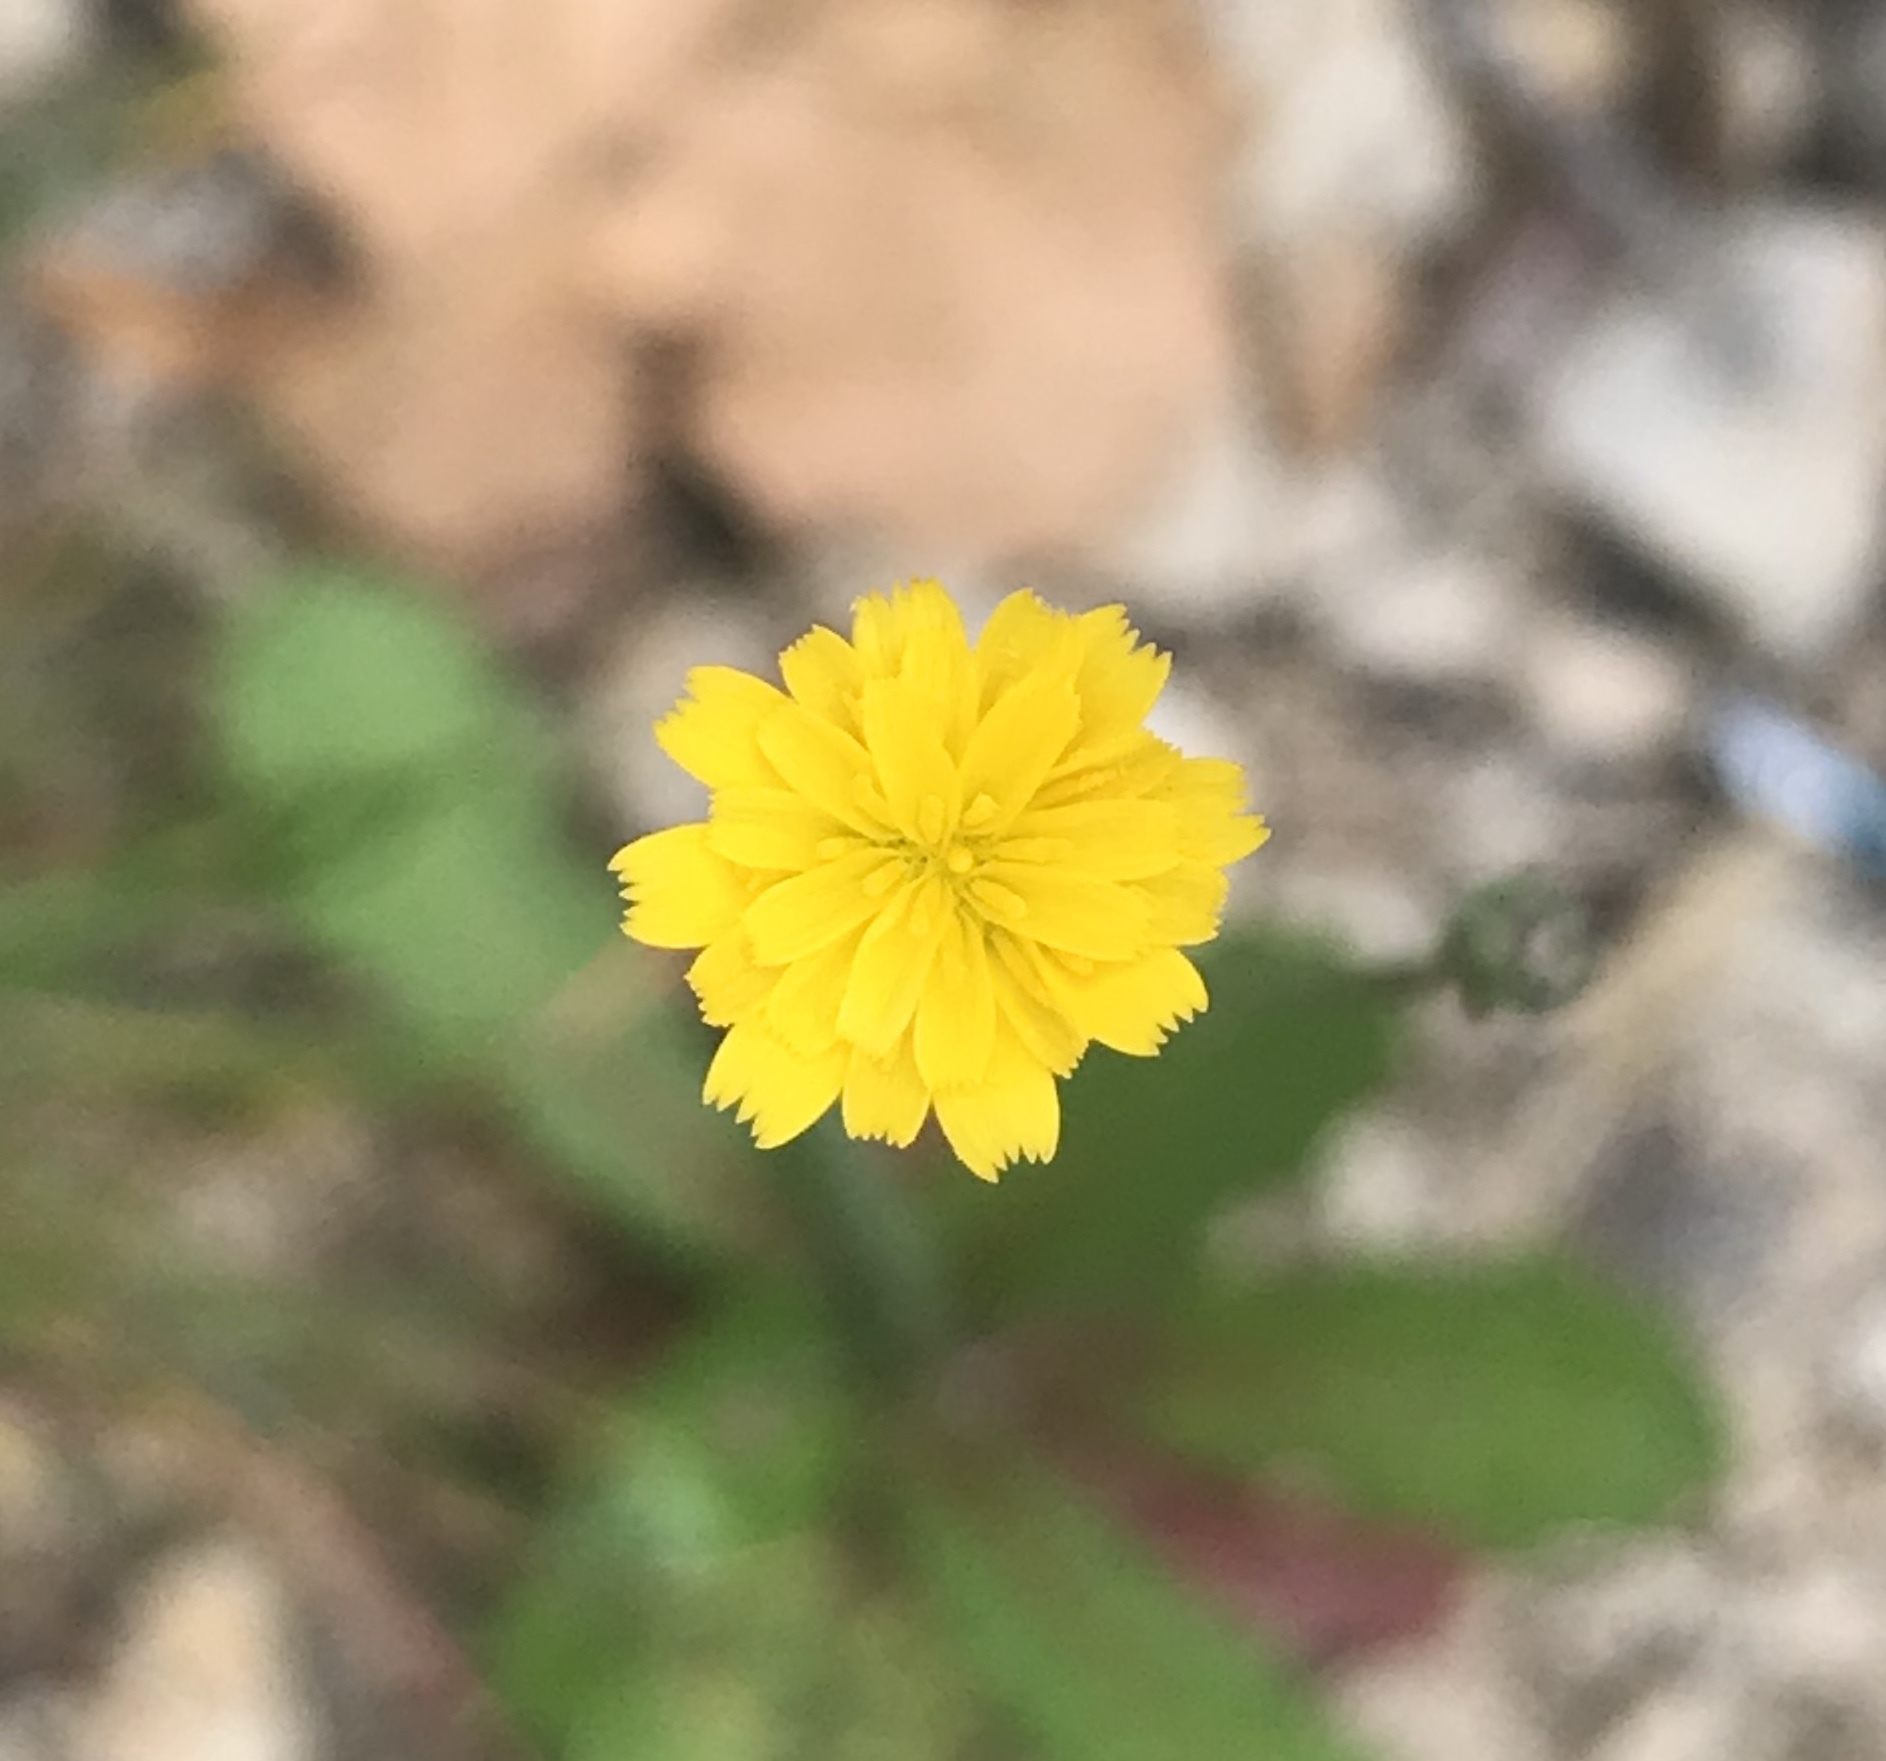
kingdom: Plantae
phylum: Tracheophyta
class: Magnoliopsida
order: Asterales
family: Asteraceae
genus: Hypochaeris
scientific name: Hypochaeris glabra
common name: Smooth catsear
